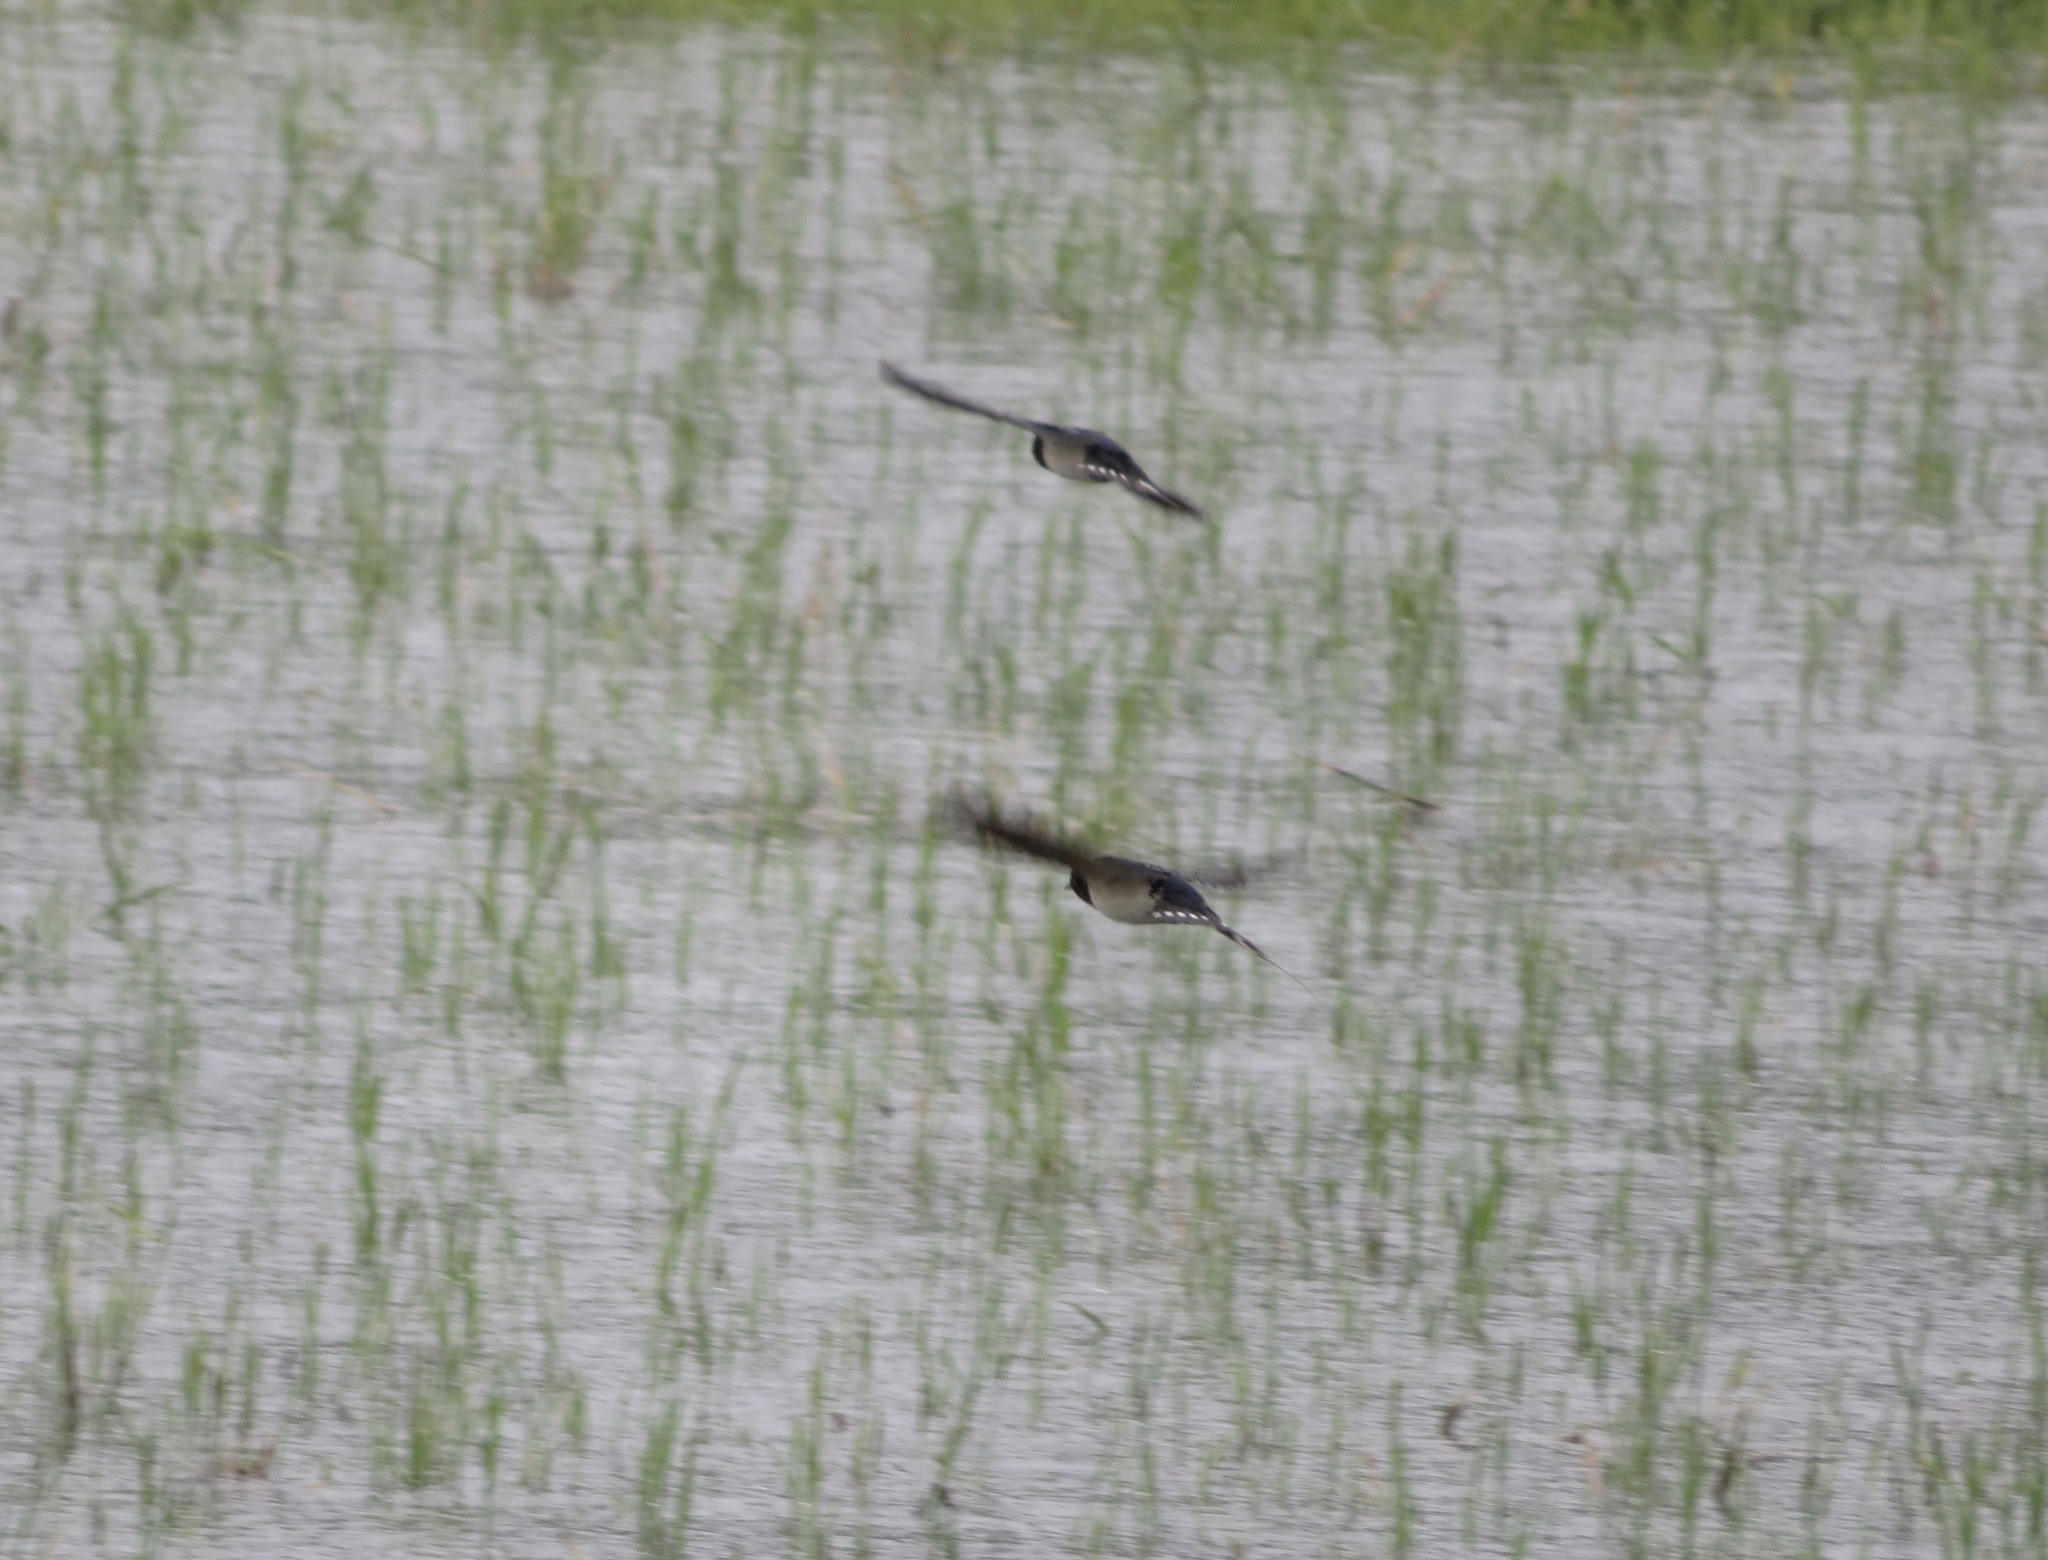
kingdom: Animalia
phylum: Chordata
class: Aves
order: Passeriformes
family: Hirundinidae
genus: Hirundo
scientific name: Hirundo rustica
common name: Barn swallow
